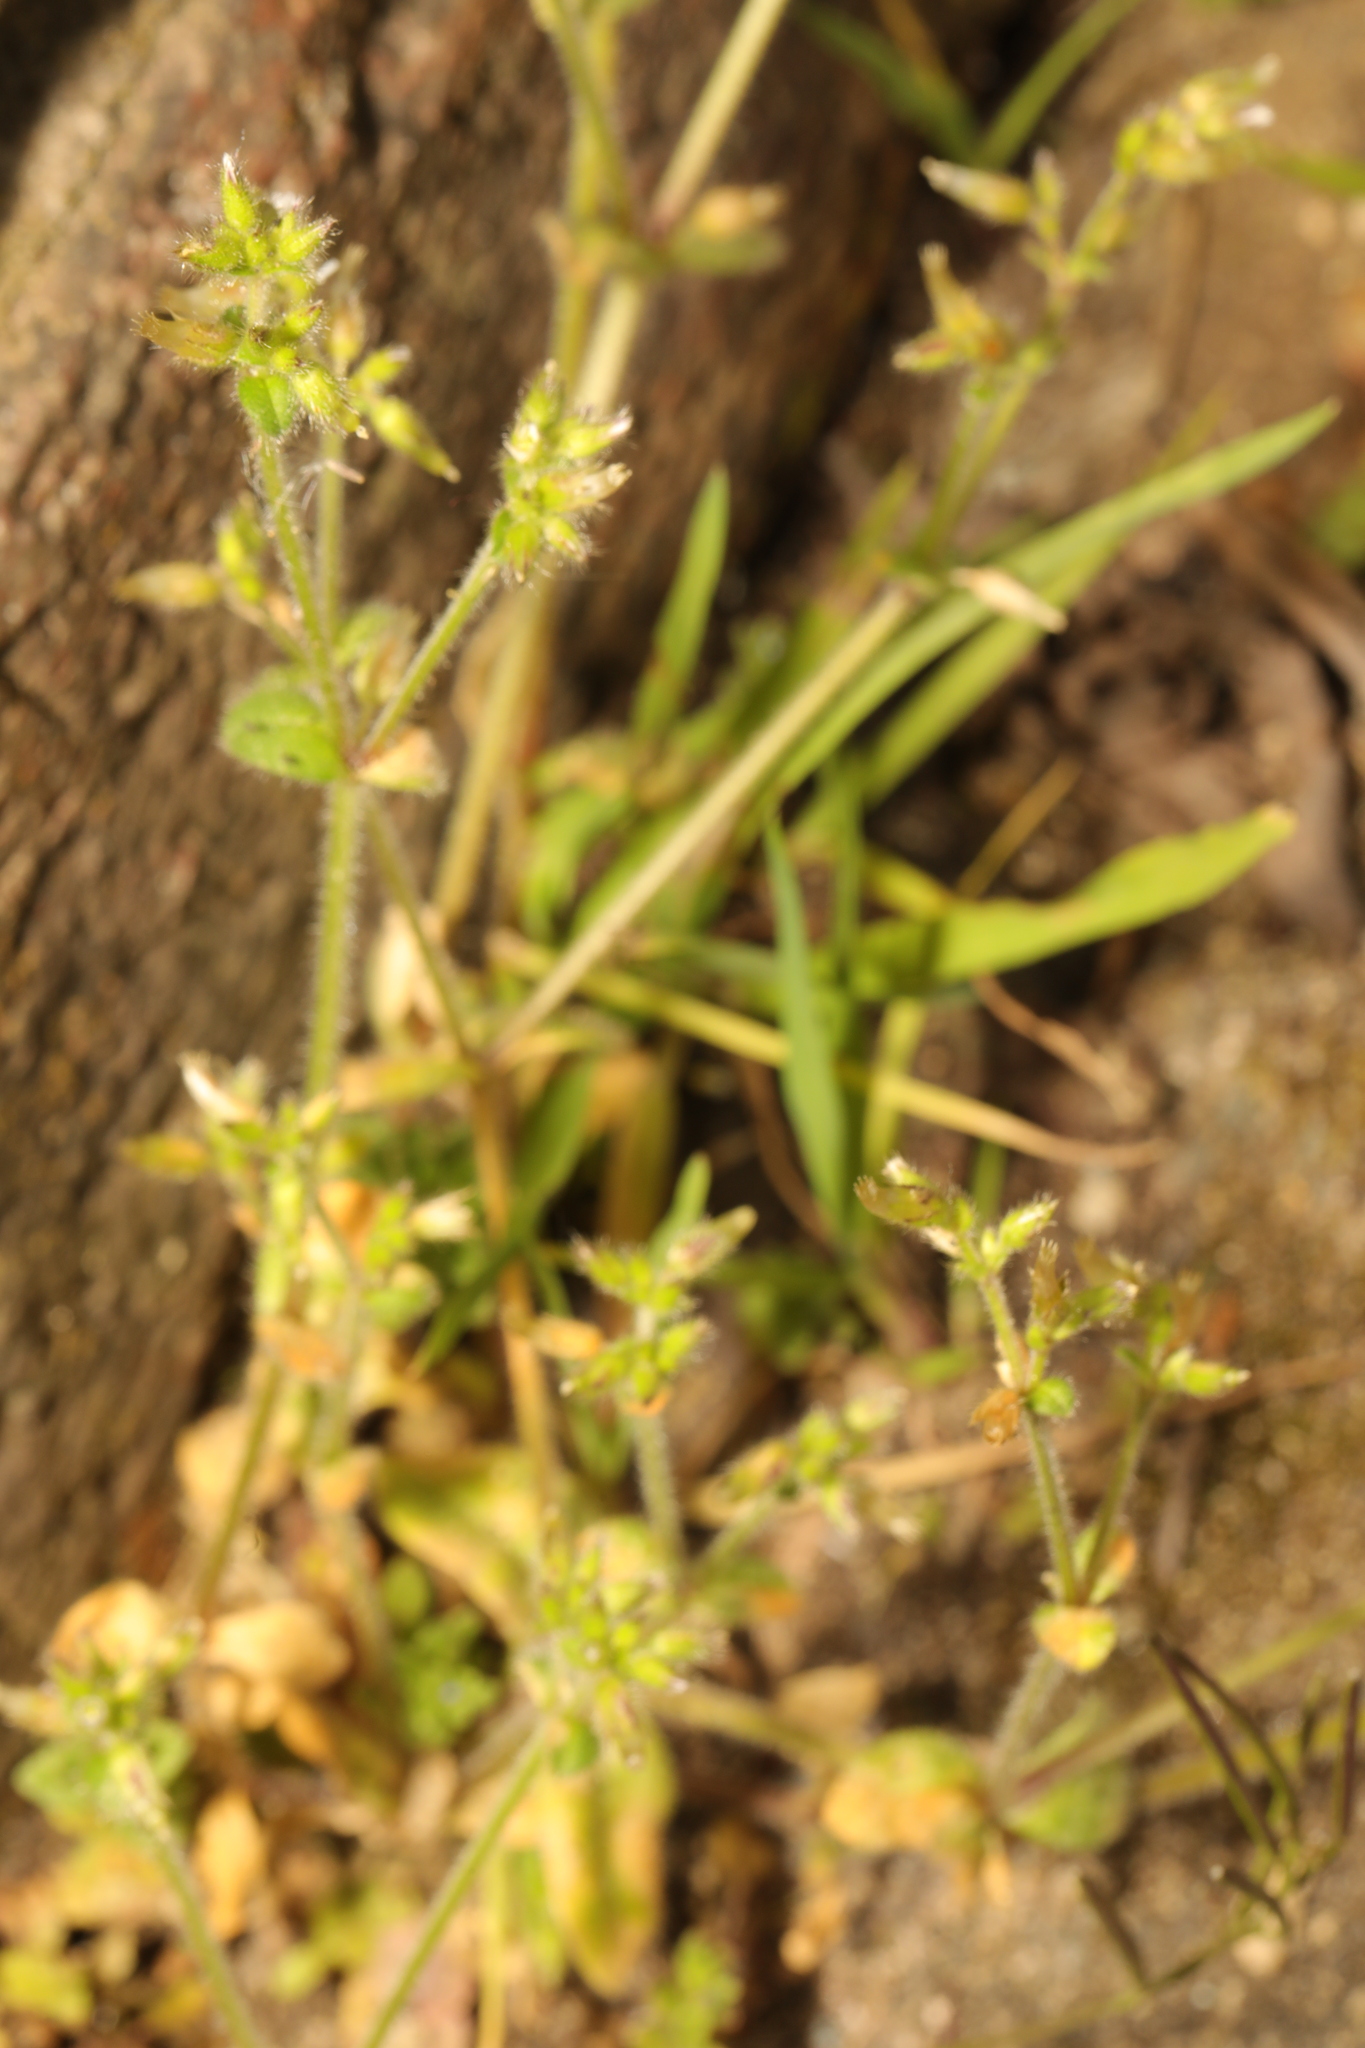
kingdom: Plantae
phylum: Tracheophyta
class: Magnoliopsida
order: Caryophyllales
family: Caryophyllaceae
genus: Cerastium
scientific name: Cerastium glomeratum
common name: Sticky chickweed
